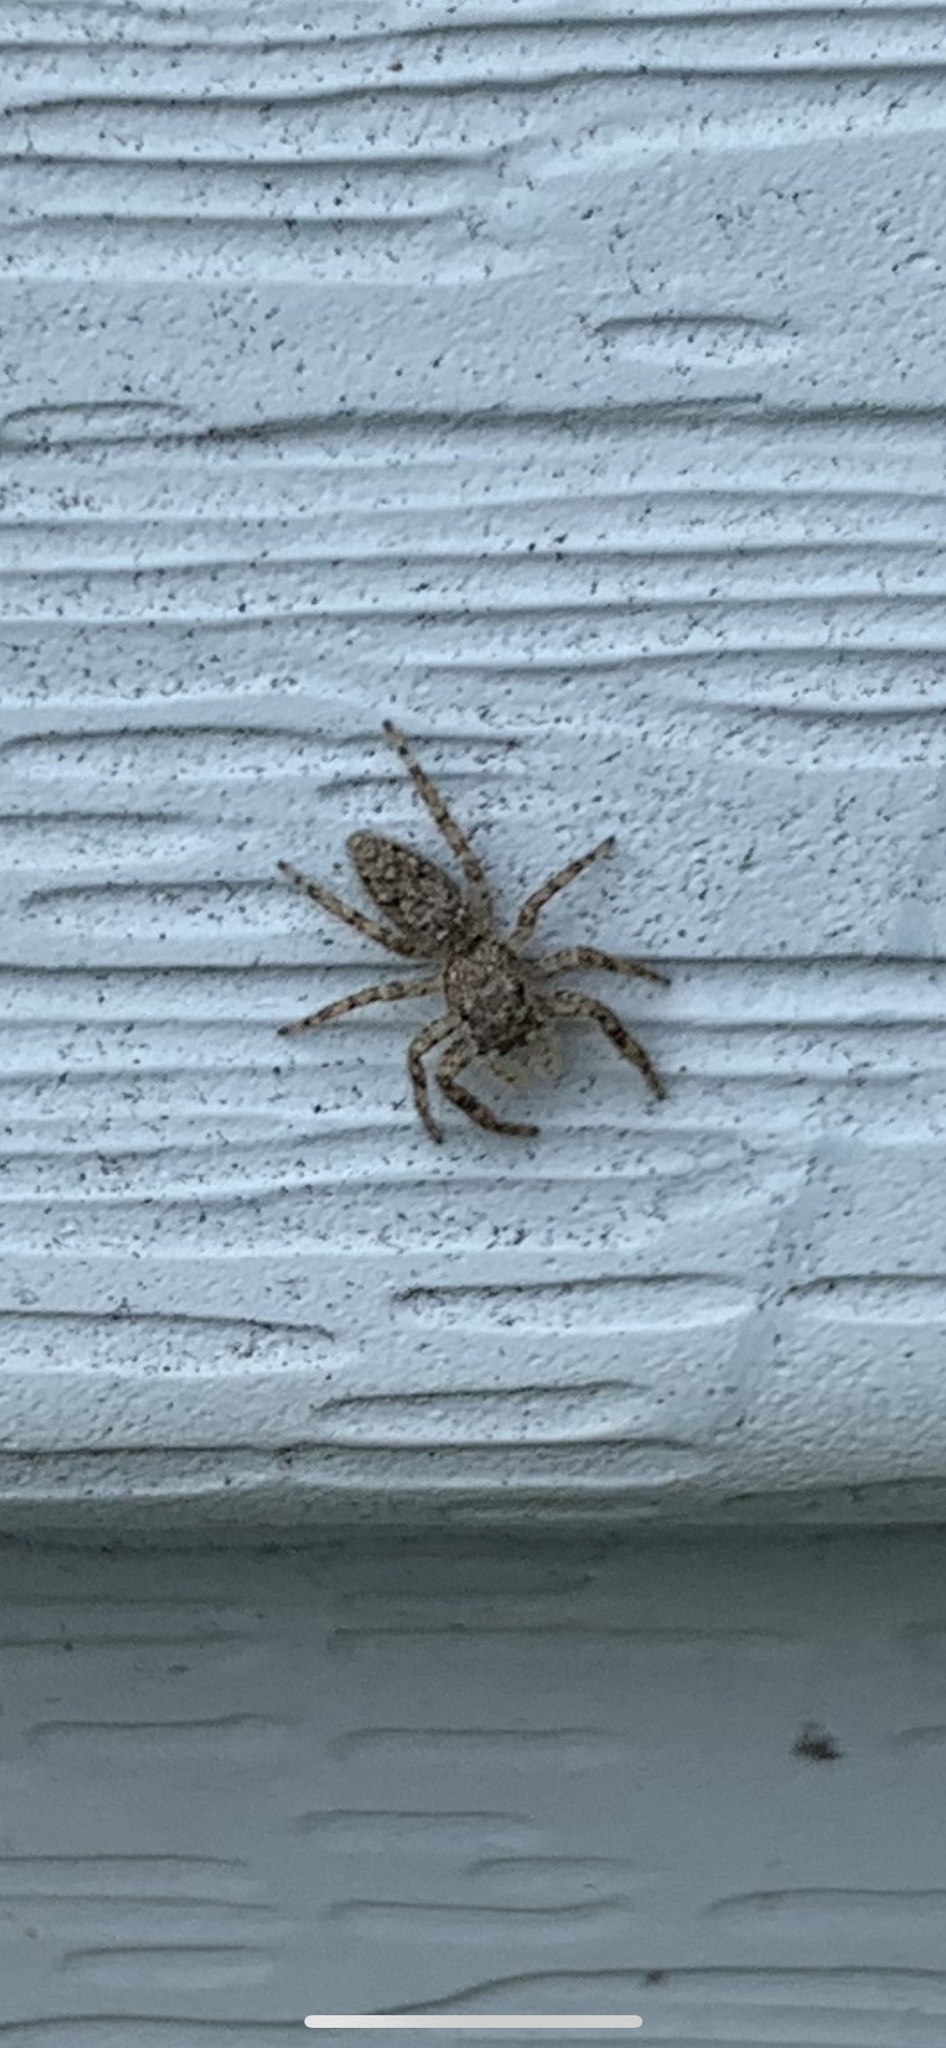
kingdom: Animalia
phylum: Arthropoda
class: Arachnida
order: Araneae
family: Salticidae
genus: Platycryptus
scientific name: Platycryptus undatus
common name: Tan jumping spider
